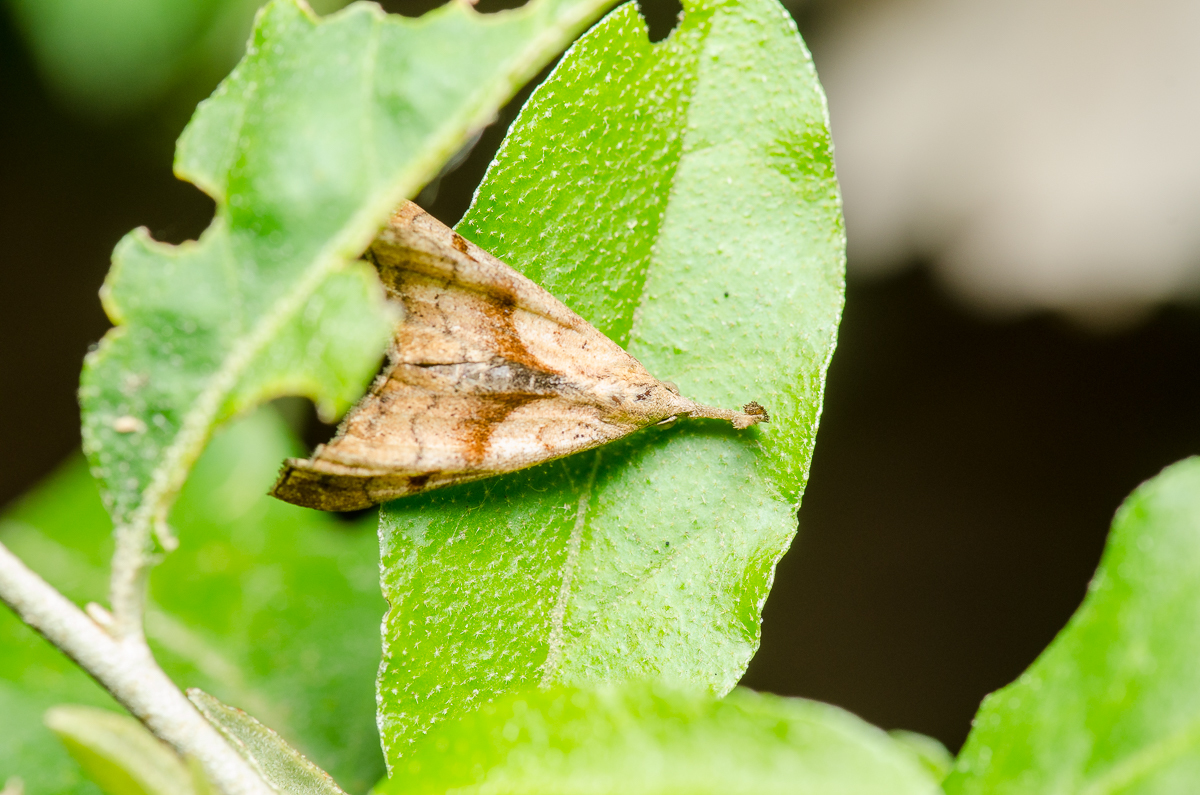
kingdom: Animalia
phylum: Arthropoda
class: Insecta
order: Lepidoptera
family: Erebidae
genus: Palthis
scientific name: Palthis angulalis
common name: Dark-spotted palthis moth
